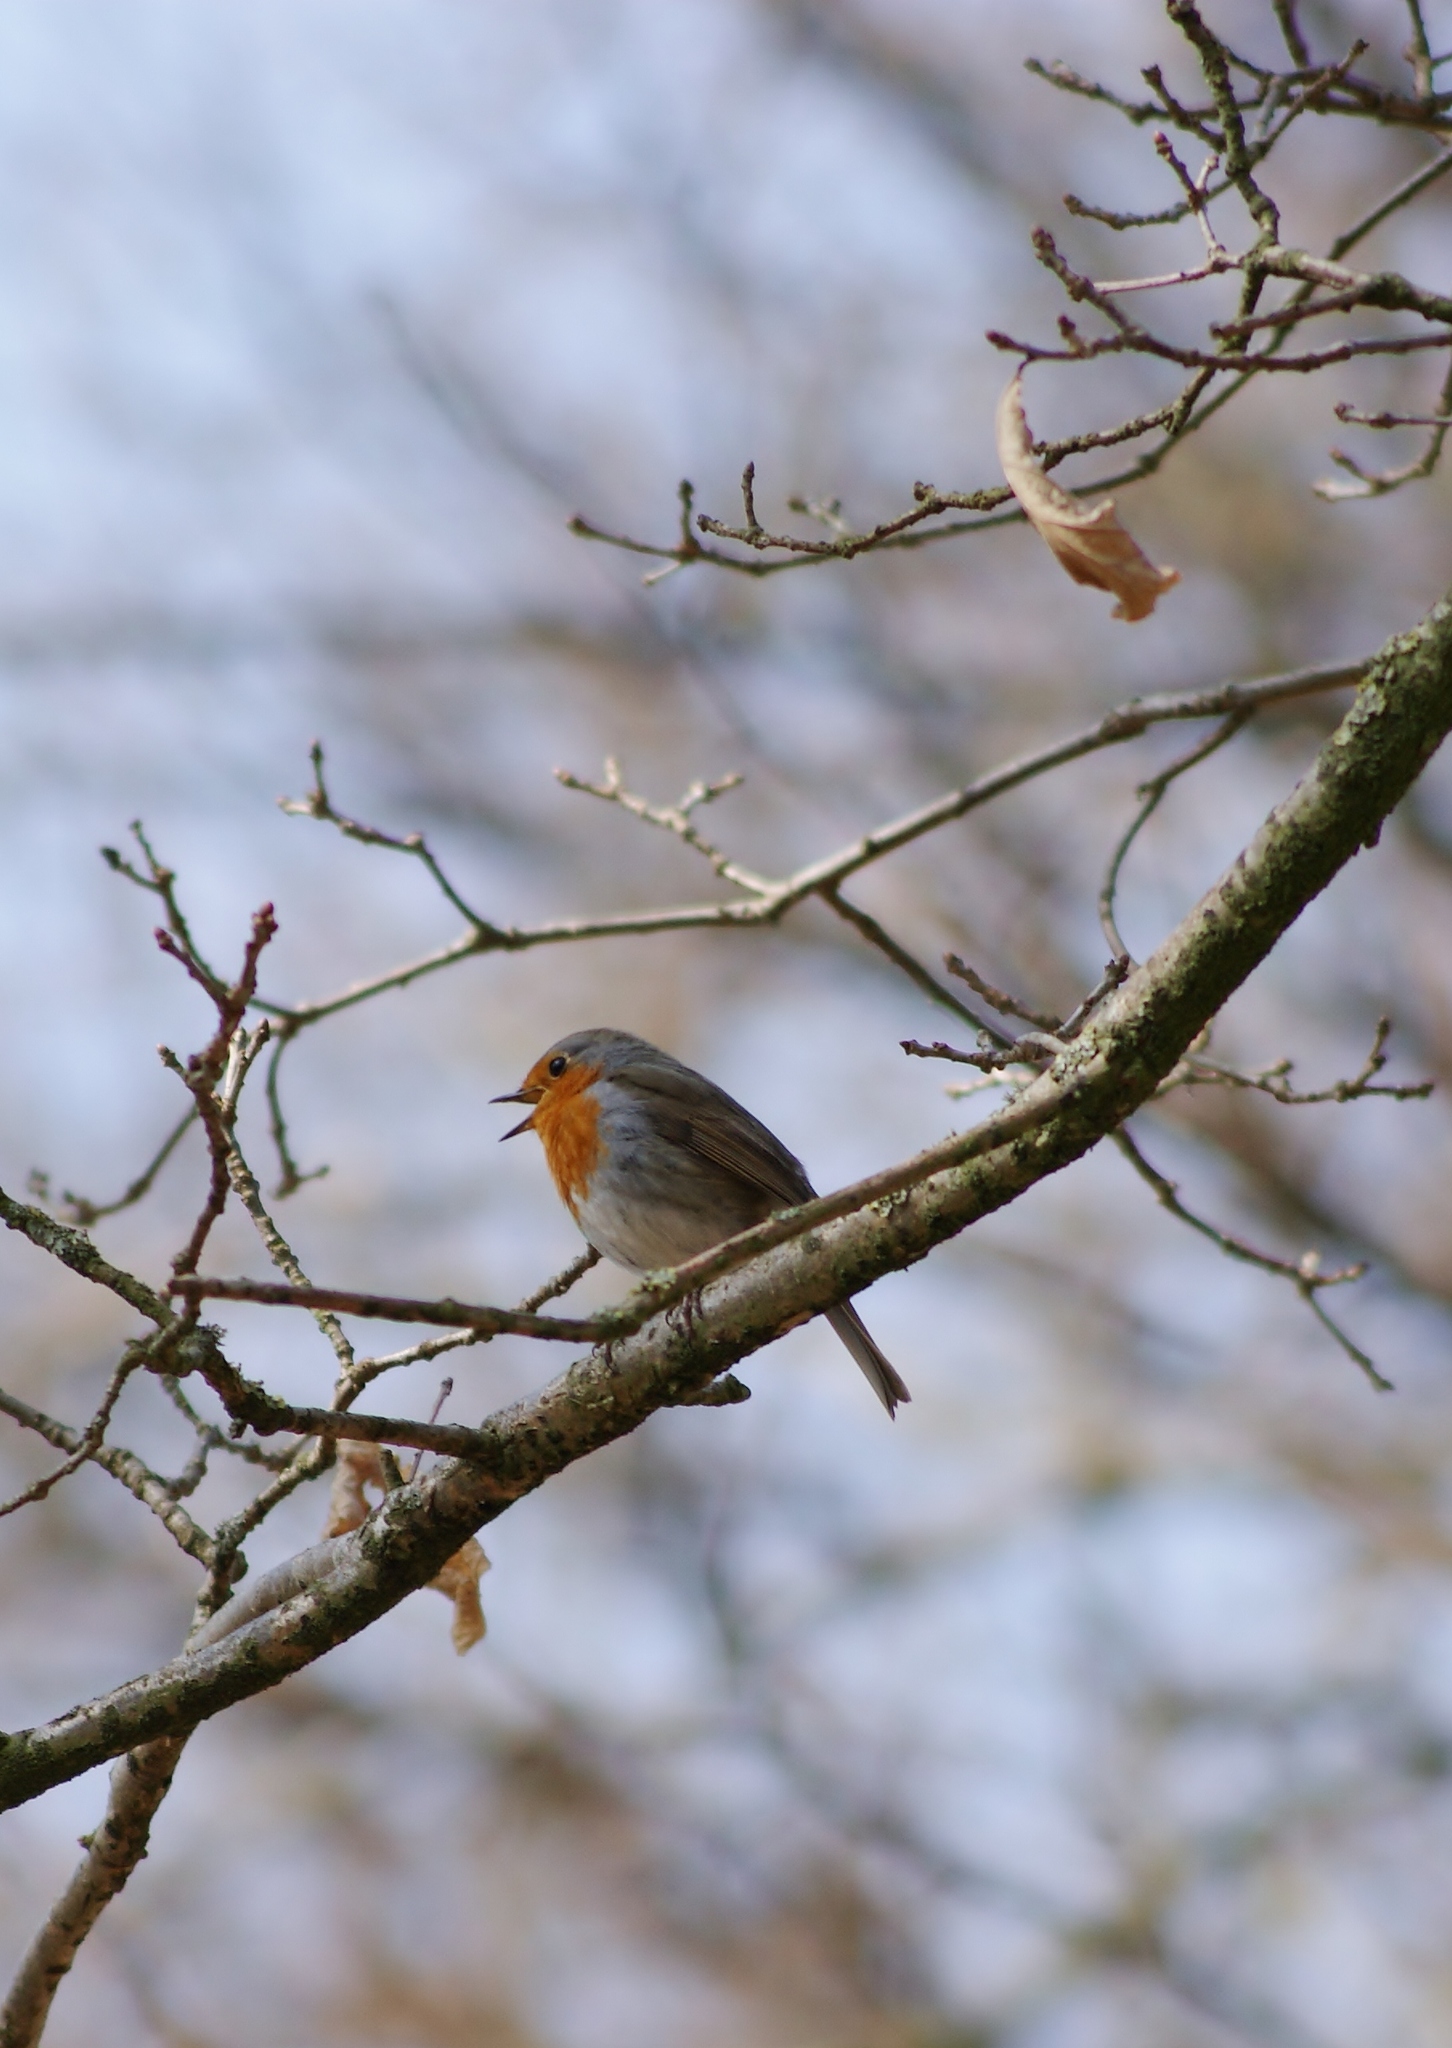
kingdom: Animalia
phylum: Chordata
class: Aves
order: Passeriformes
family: Muscicapidae
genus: Erithacus
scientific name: Erithacus rubecula
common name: European robin
